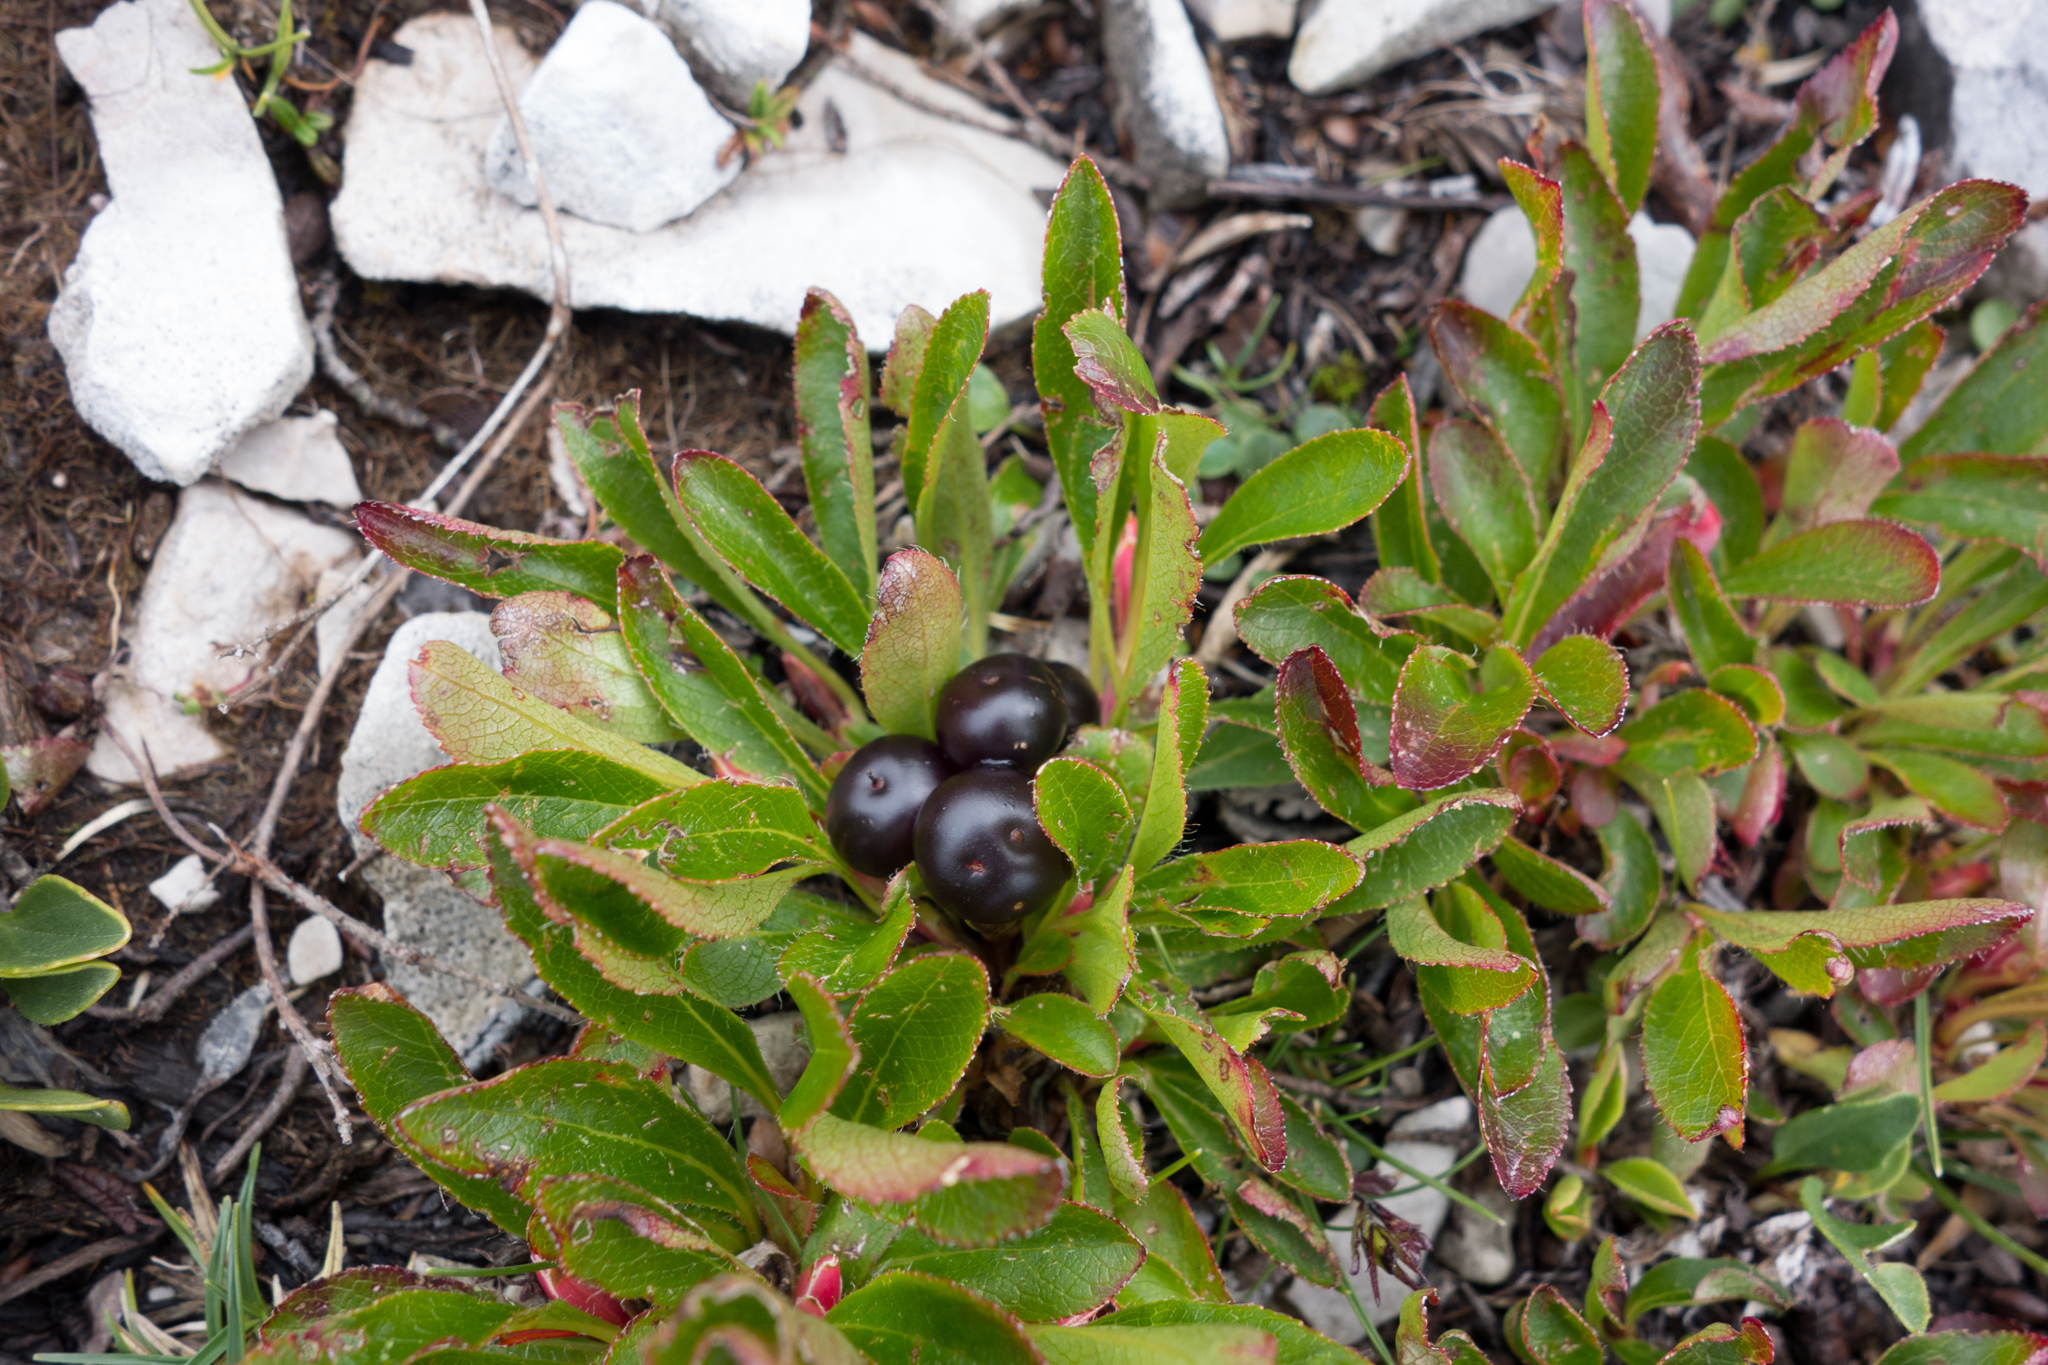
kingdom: Plantae
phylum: Tracheophyta
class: Magnoliopsida
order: Ericales
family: Ericaceae
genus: Arctostaphylos
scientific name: Arctostaphylos alpinus
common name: Alpine bearberry
